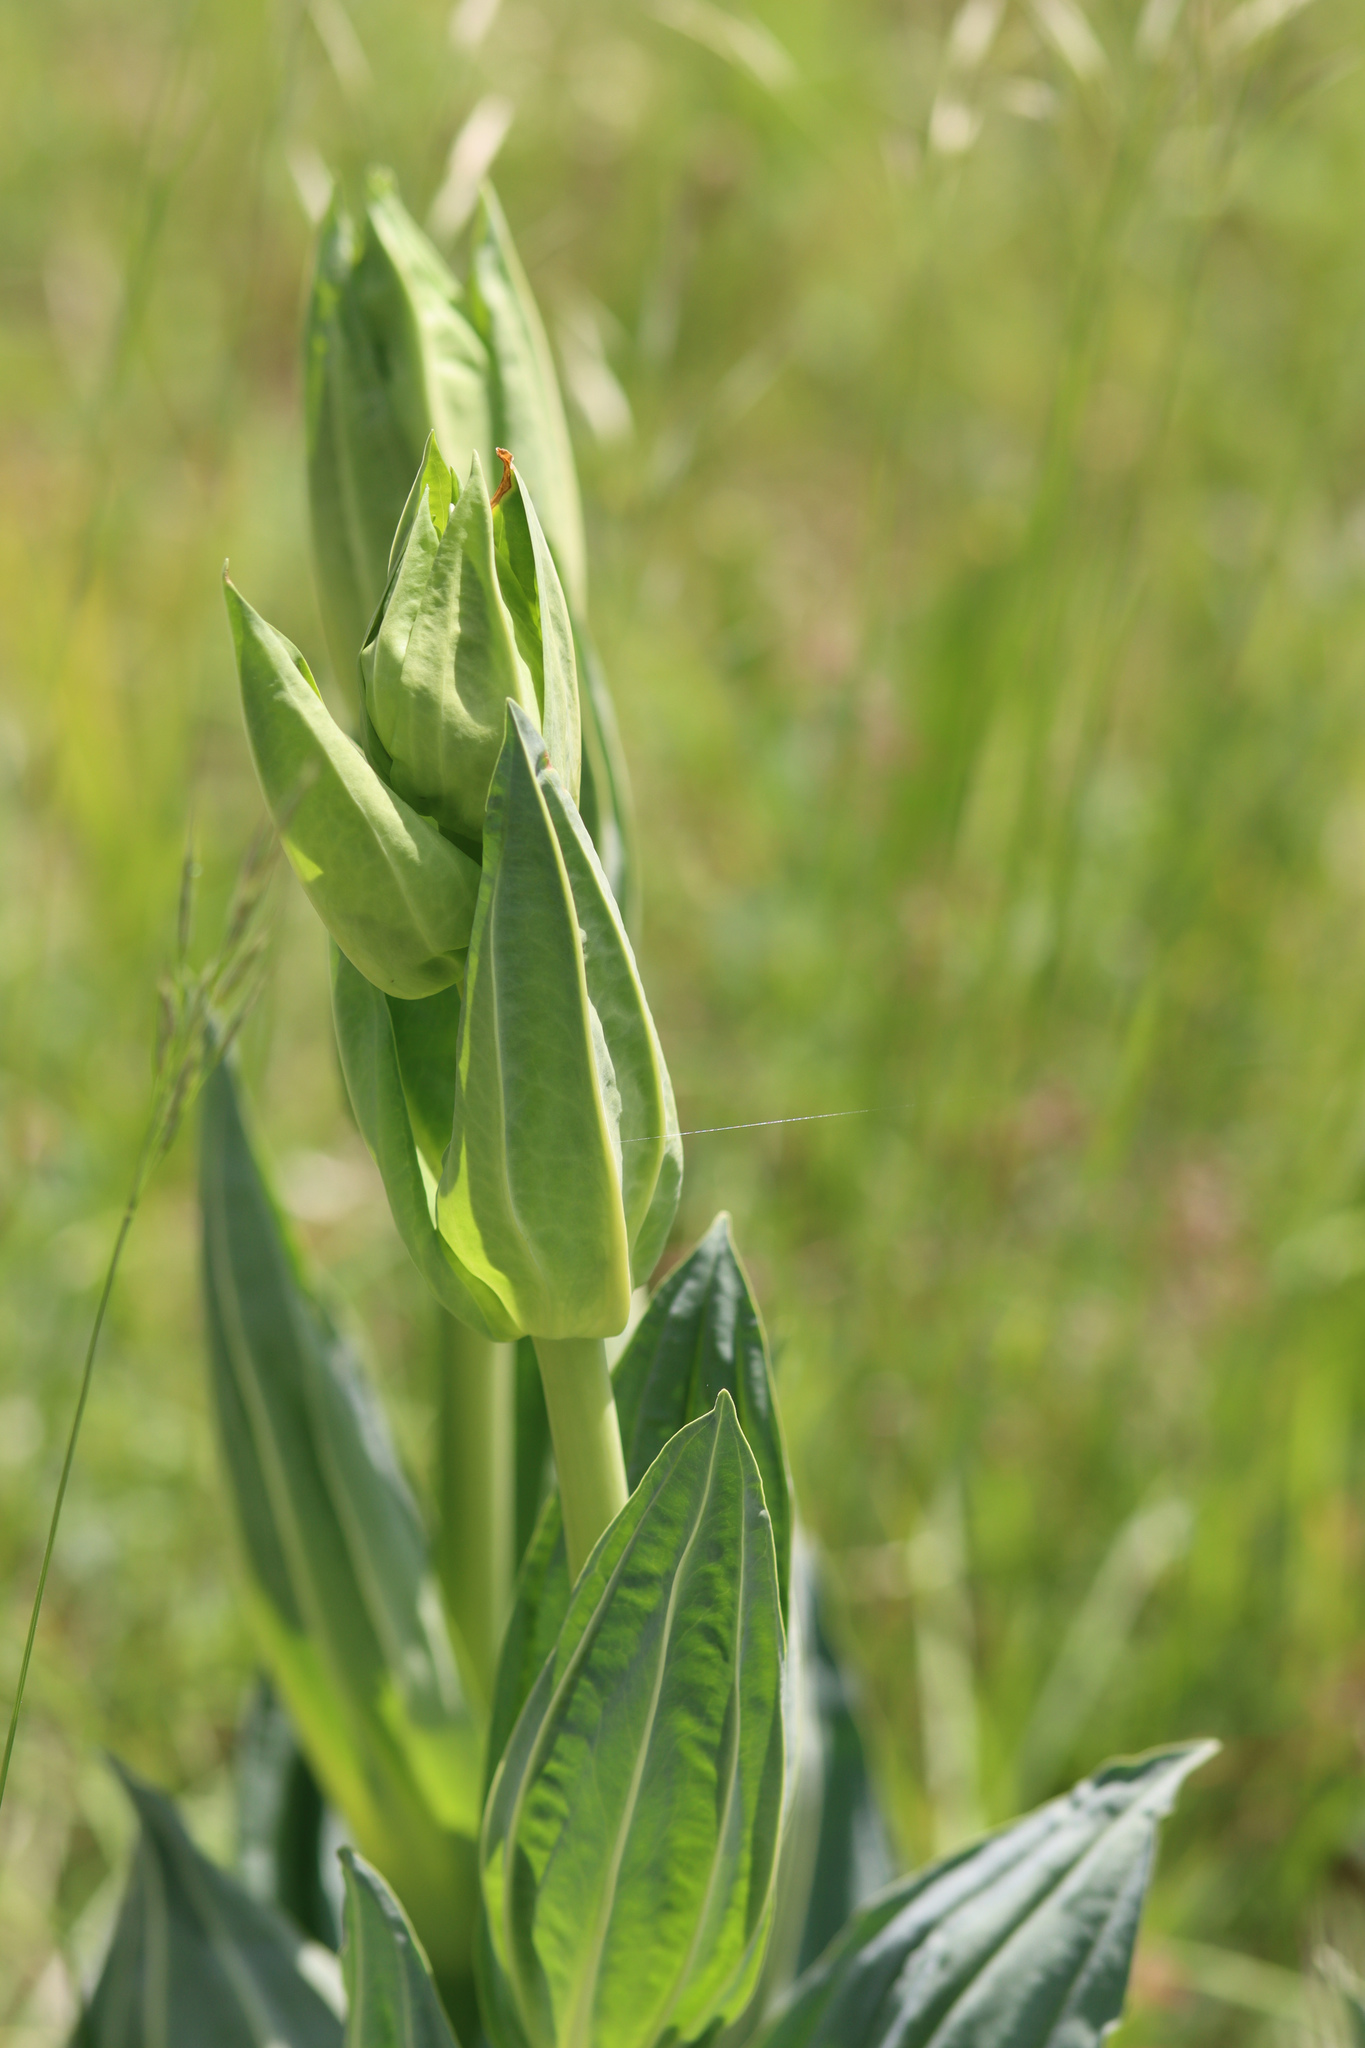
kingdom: Plantae
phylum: Tracheophyta
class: Magnoliopsida
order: Gentianales
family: Gentianaceae
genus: Gentiana
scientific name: Gentiana lutea
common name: Great yellow gentian
